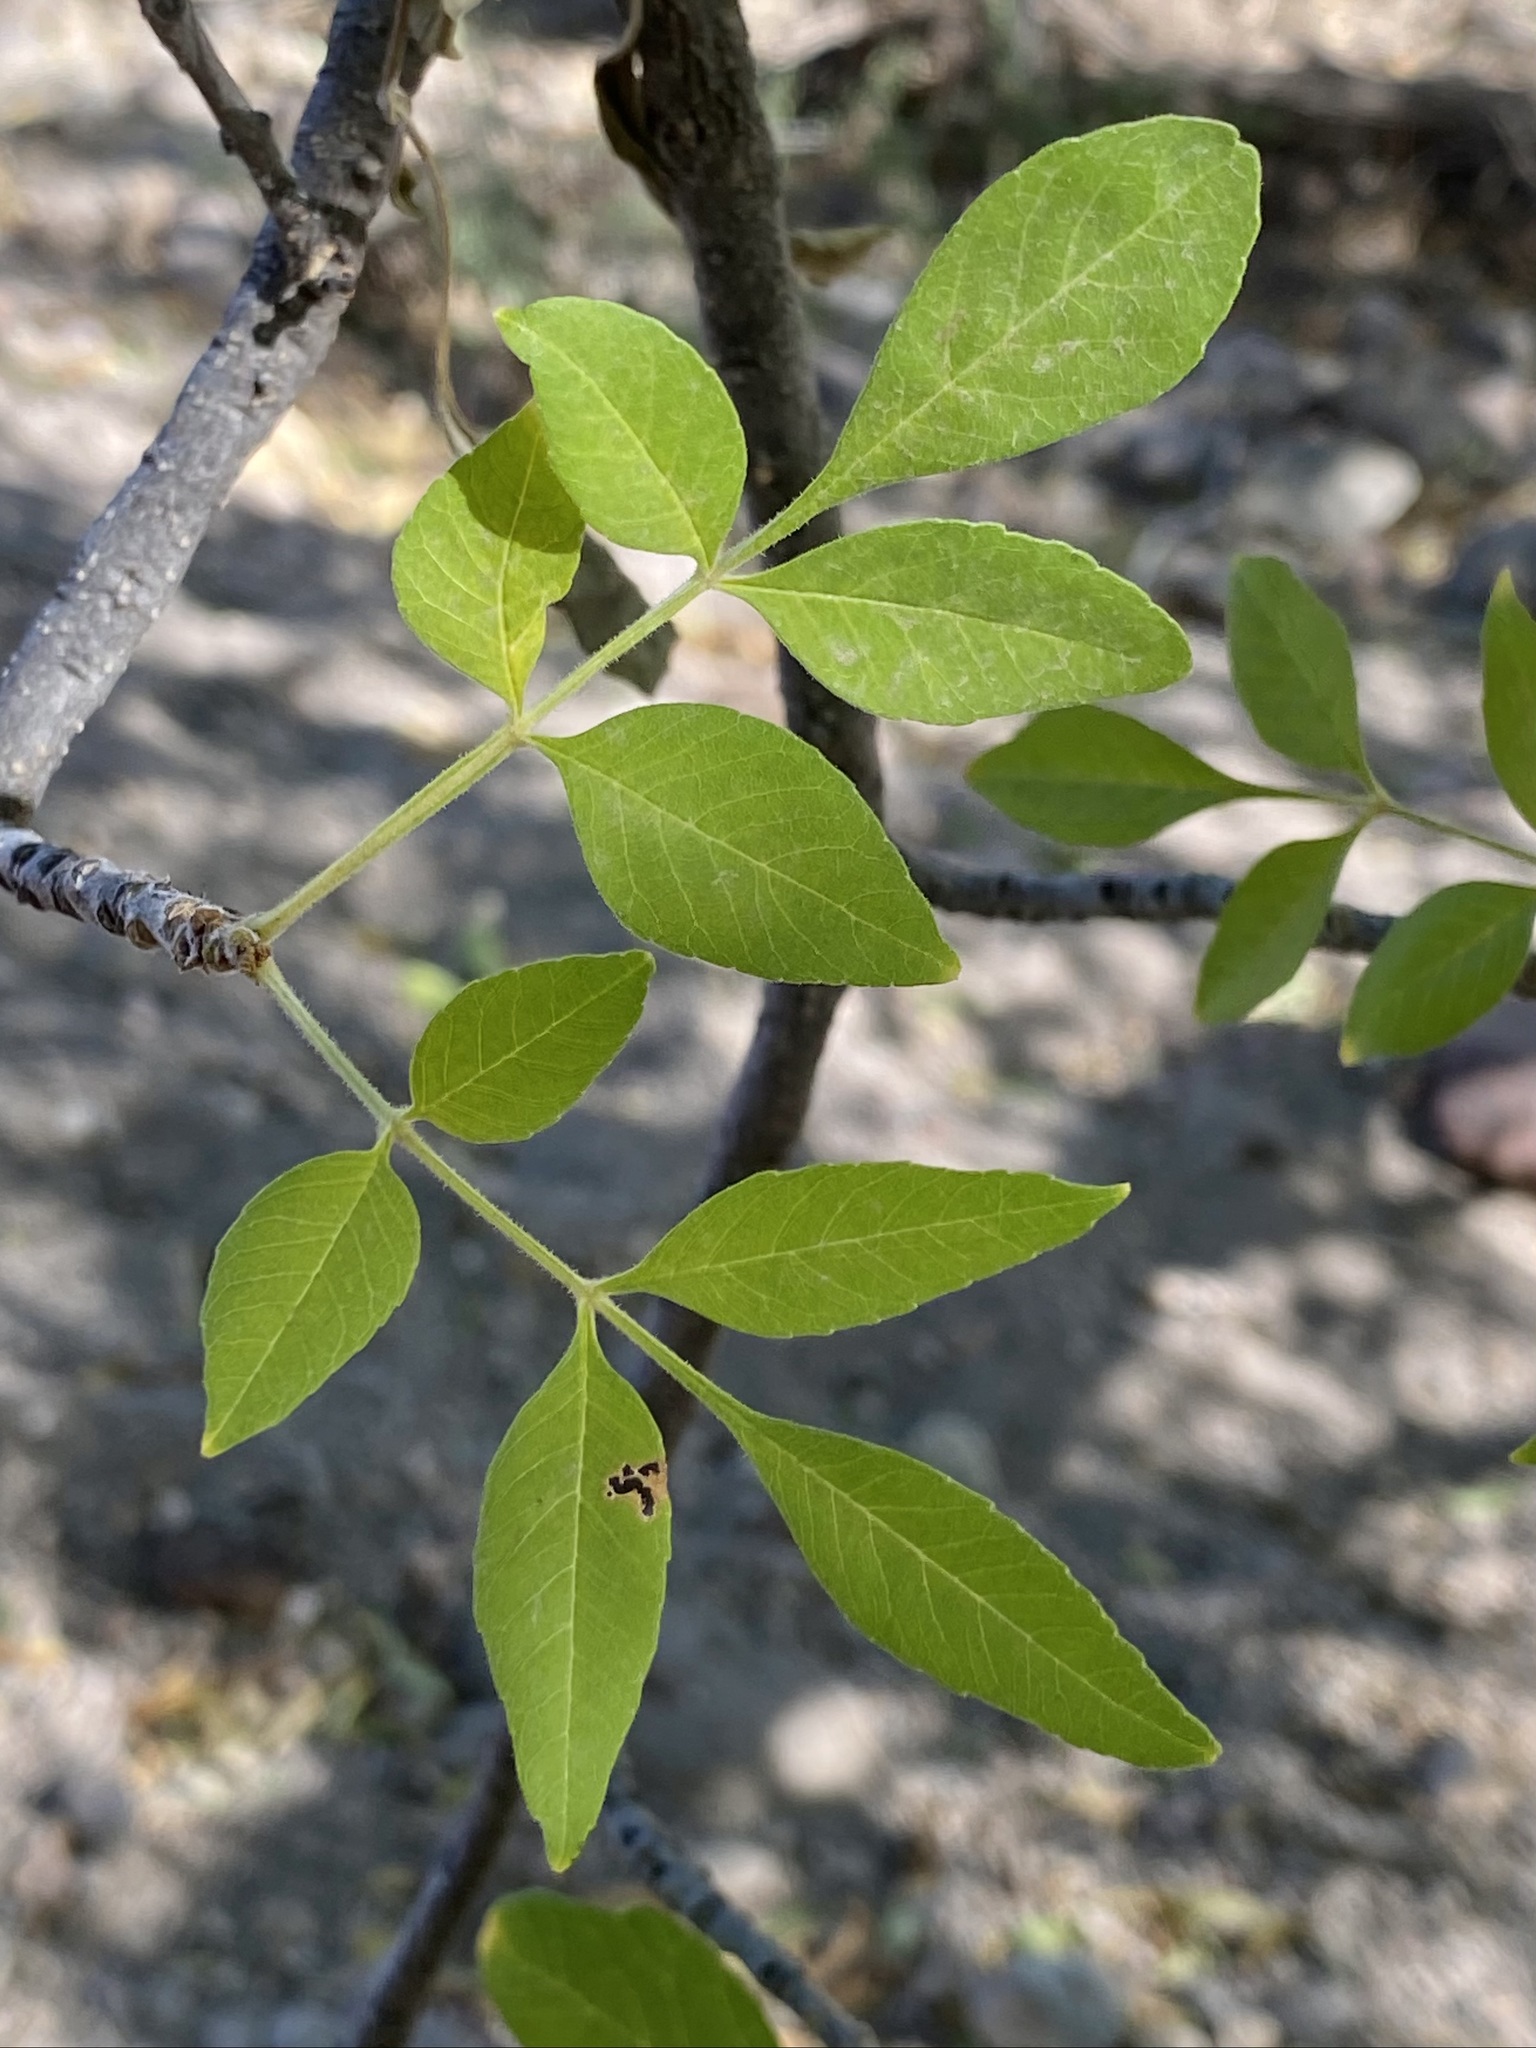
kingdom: Plantae
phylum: Tracheophyta
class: Magnoliopsida
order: Lamiales
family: Oleaceae
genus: Fraxinus
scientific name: Fraxinus velutina
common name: Arizon ash
